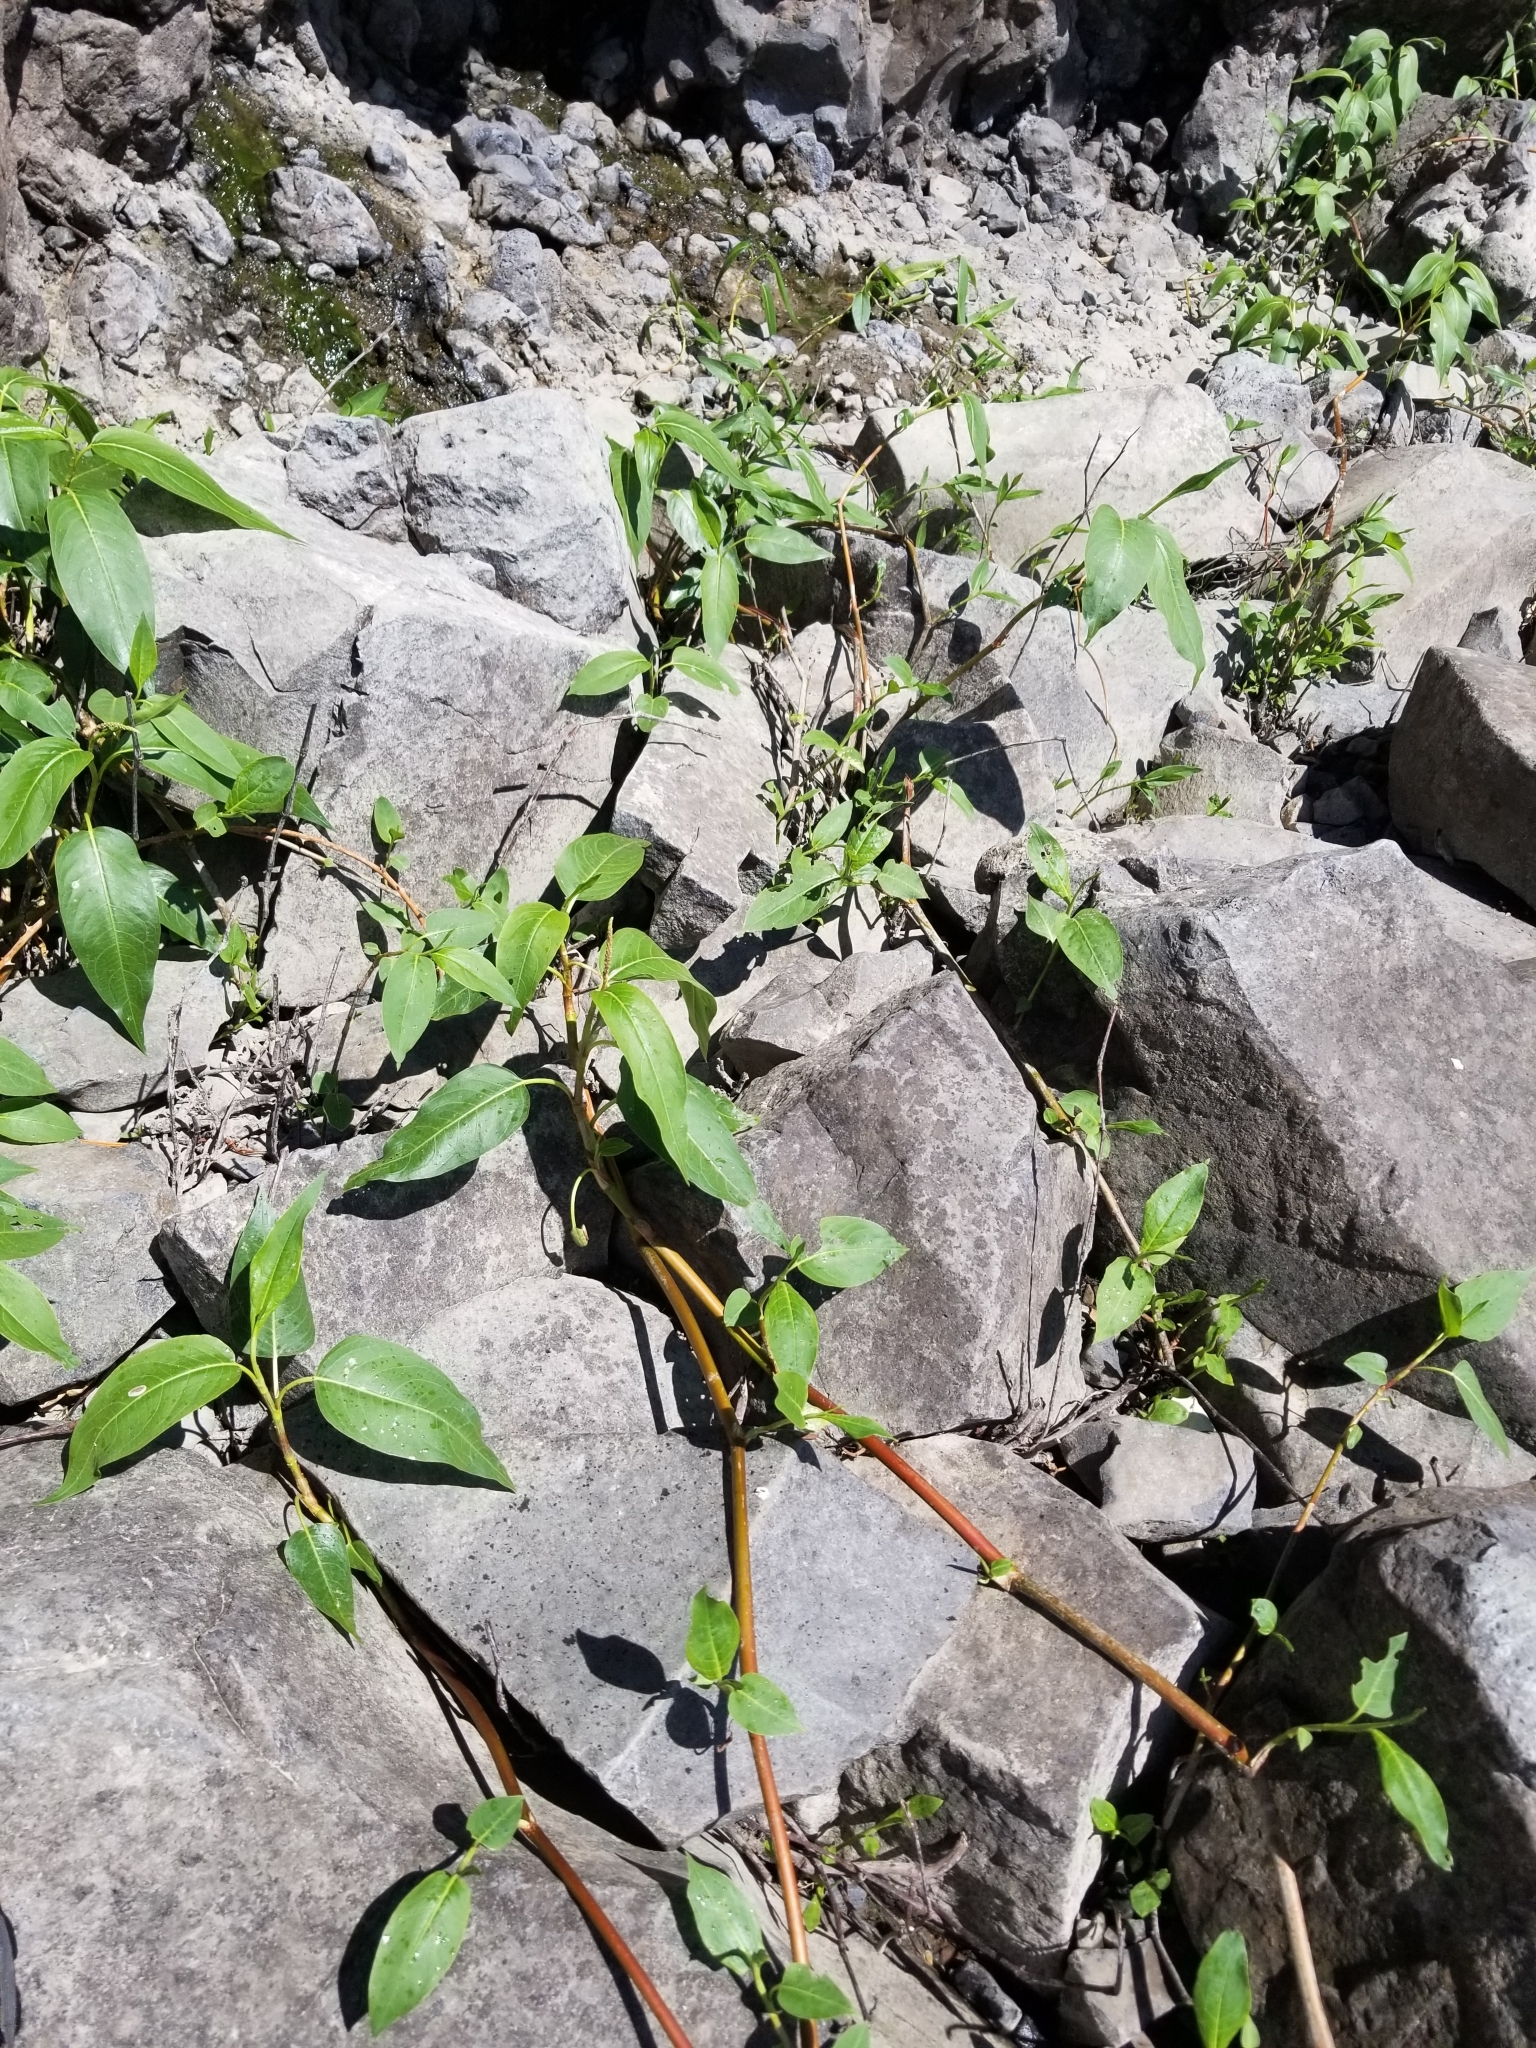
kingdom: Plantae
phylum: Tracheophyta
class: Magnoliopsida
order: Caryophyllales
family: Polygonaceae
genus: Persicaria
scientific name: Persicaria amphibia
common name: Amphibious bistort
